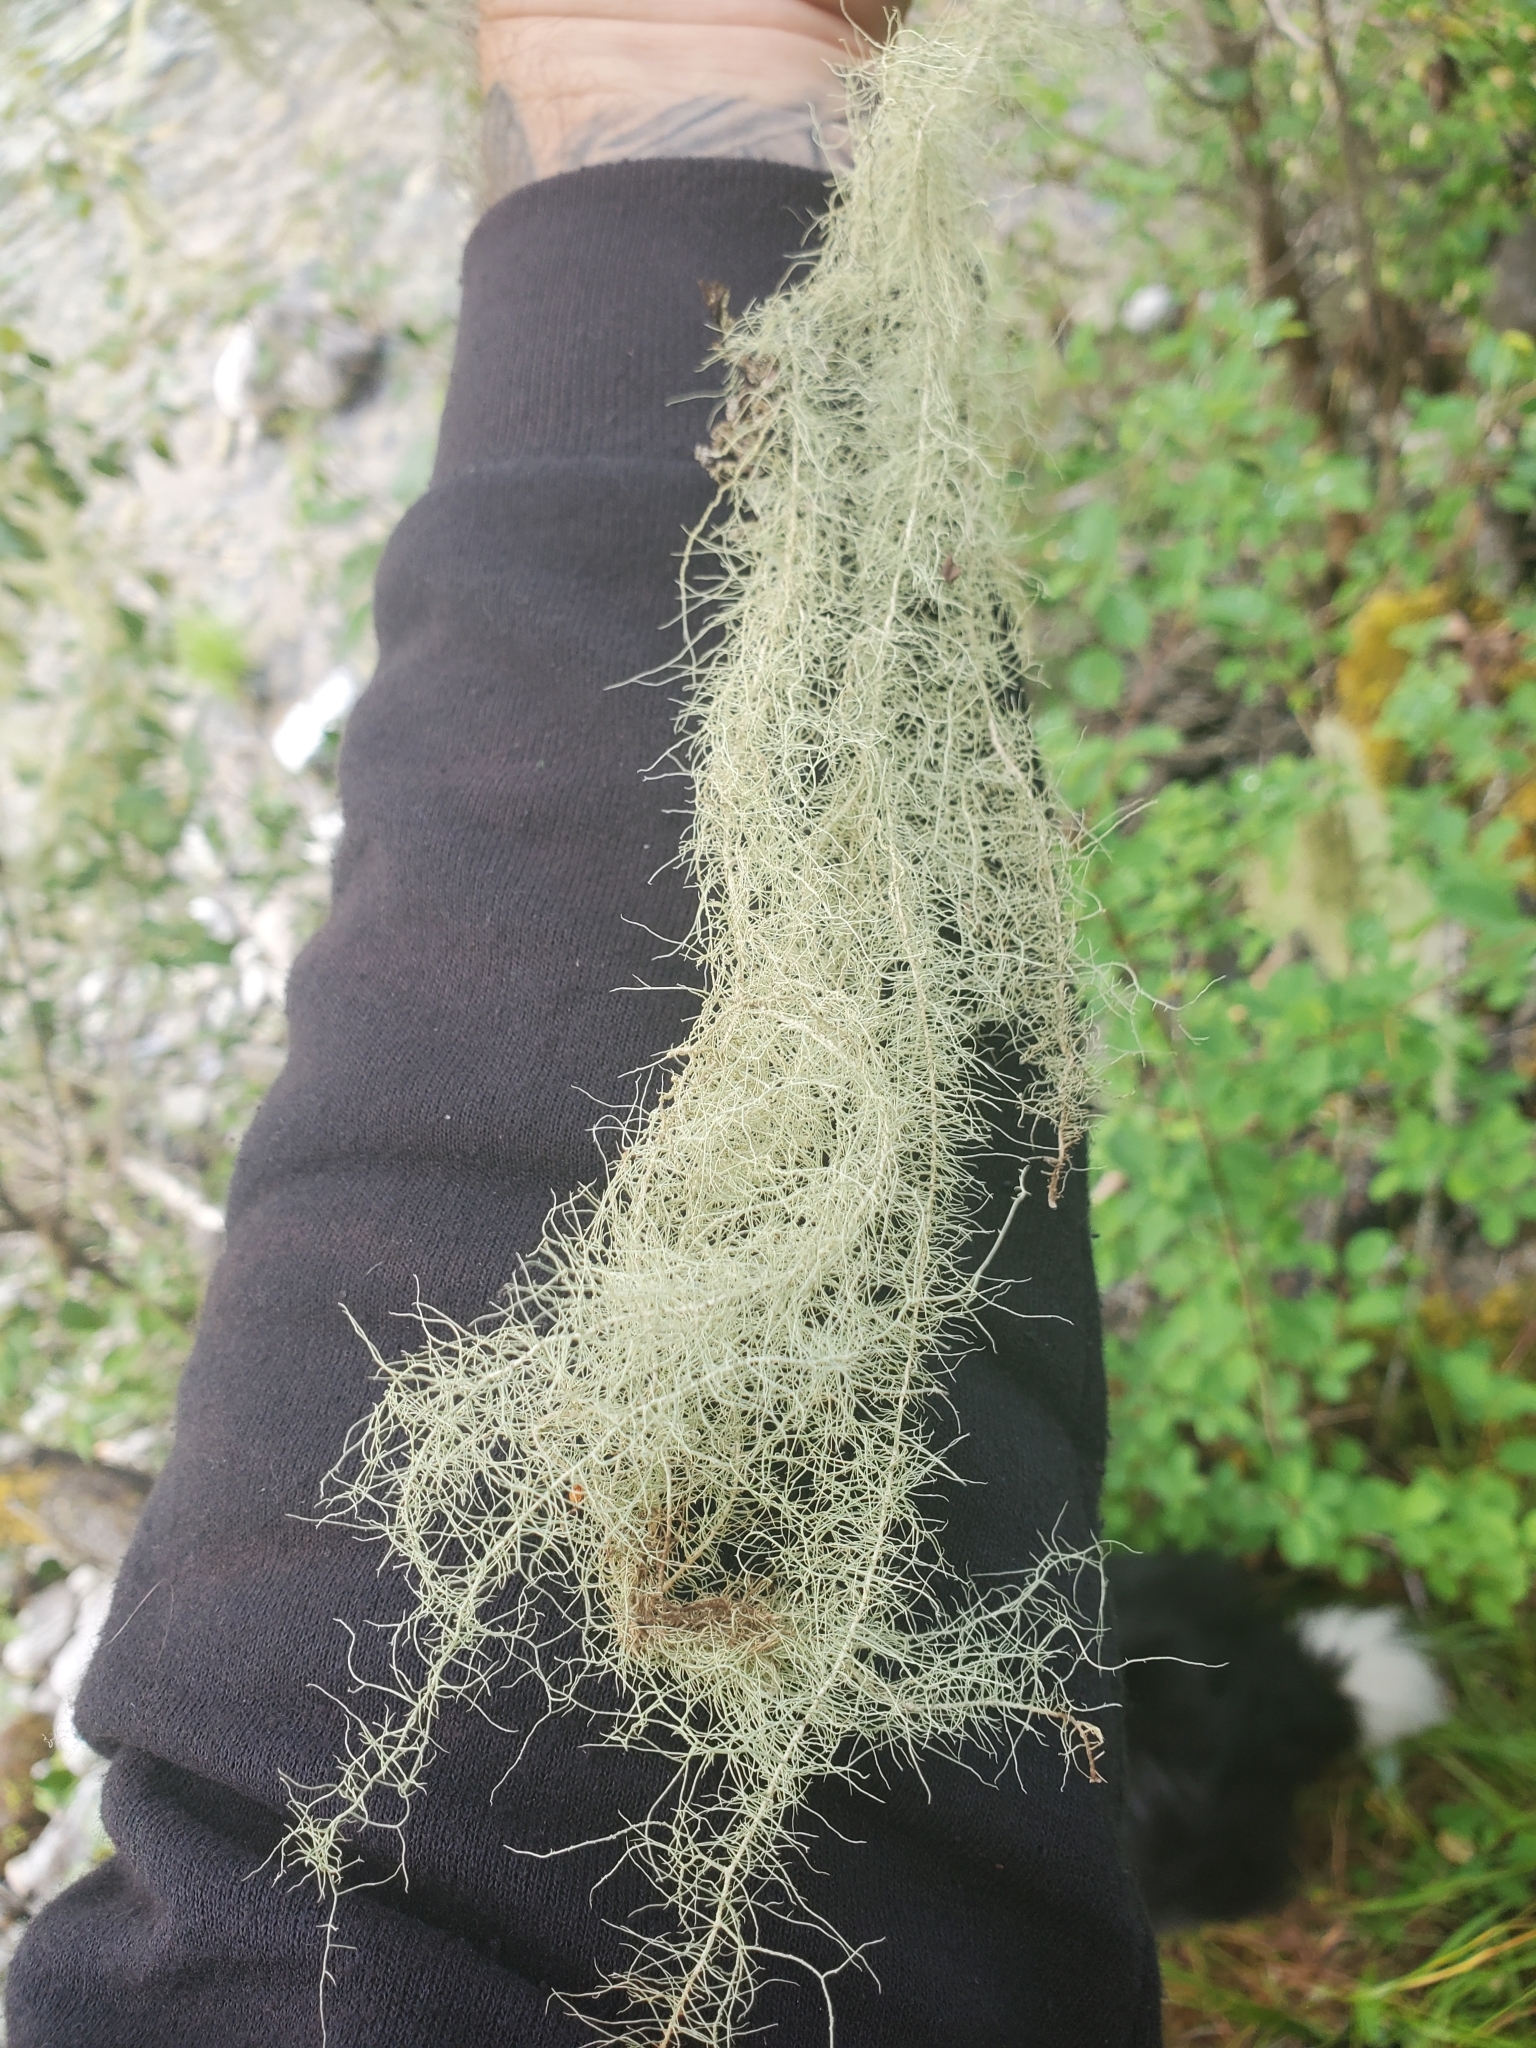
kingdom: Fungi
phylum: Ascomycota
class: Lecanoromycetes
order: Lecanorales
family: Parmeliaceae
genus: Dolichousnea
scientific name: Dolichousnea longissima
